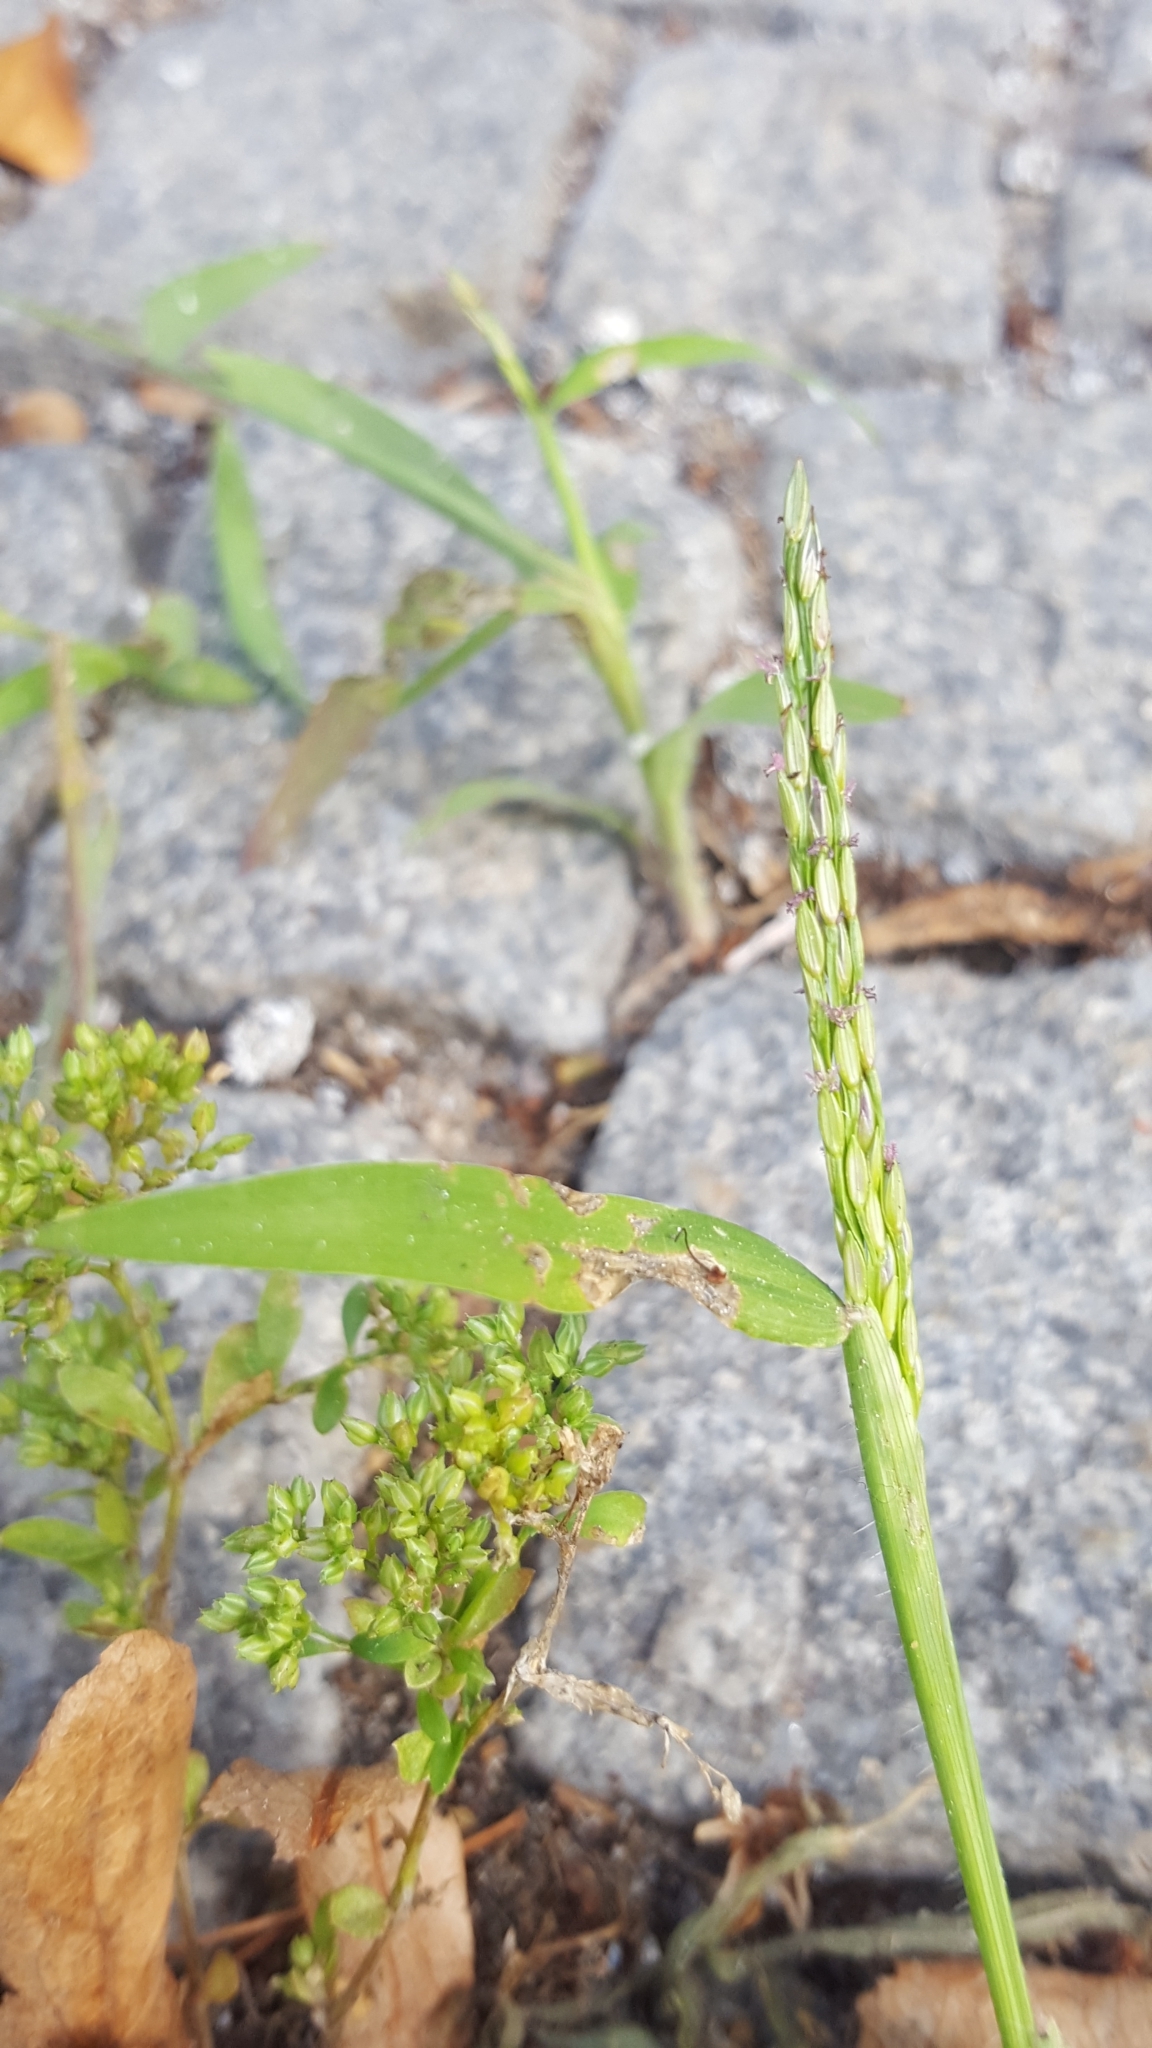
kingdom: Plantae
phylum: Tracheophyta
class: Liliopsida
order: Poales
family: Poaceae
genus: Digitaria
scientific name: Digitaria sanguinalis
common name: Hairy crabgrass
